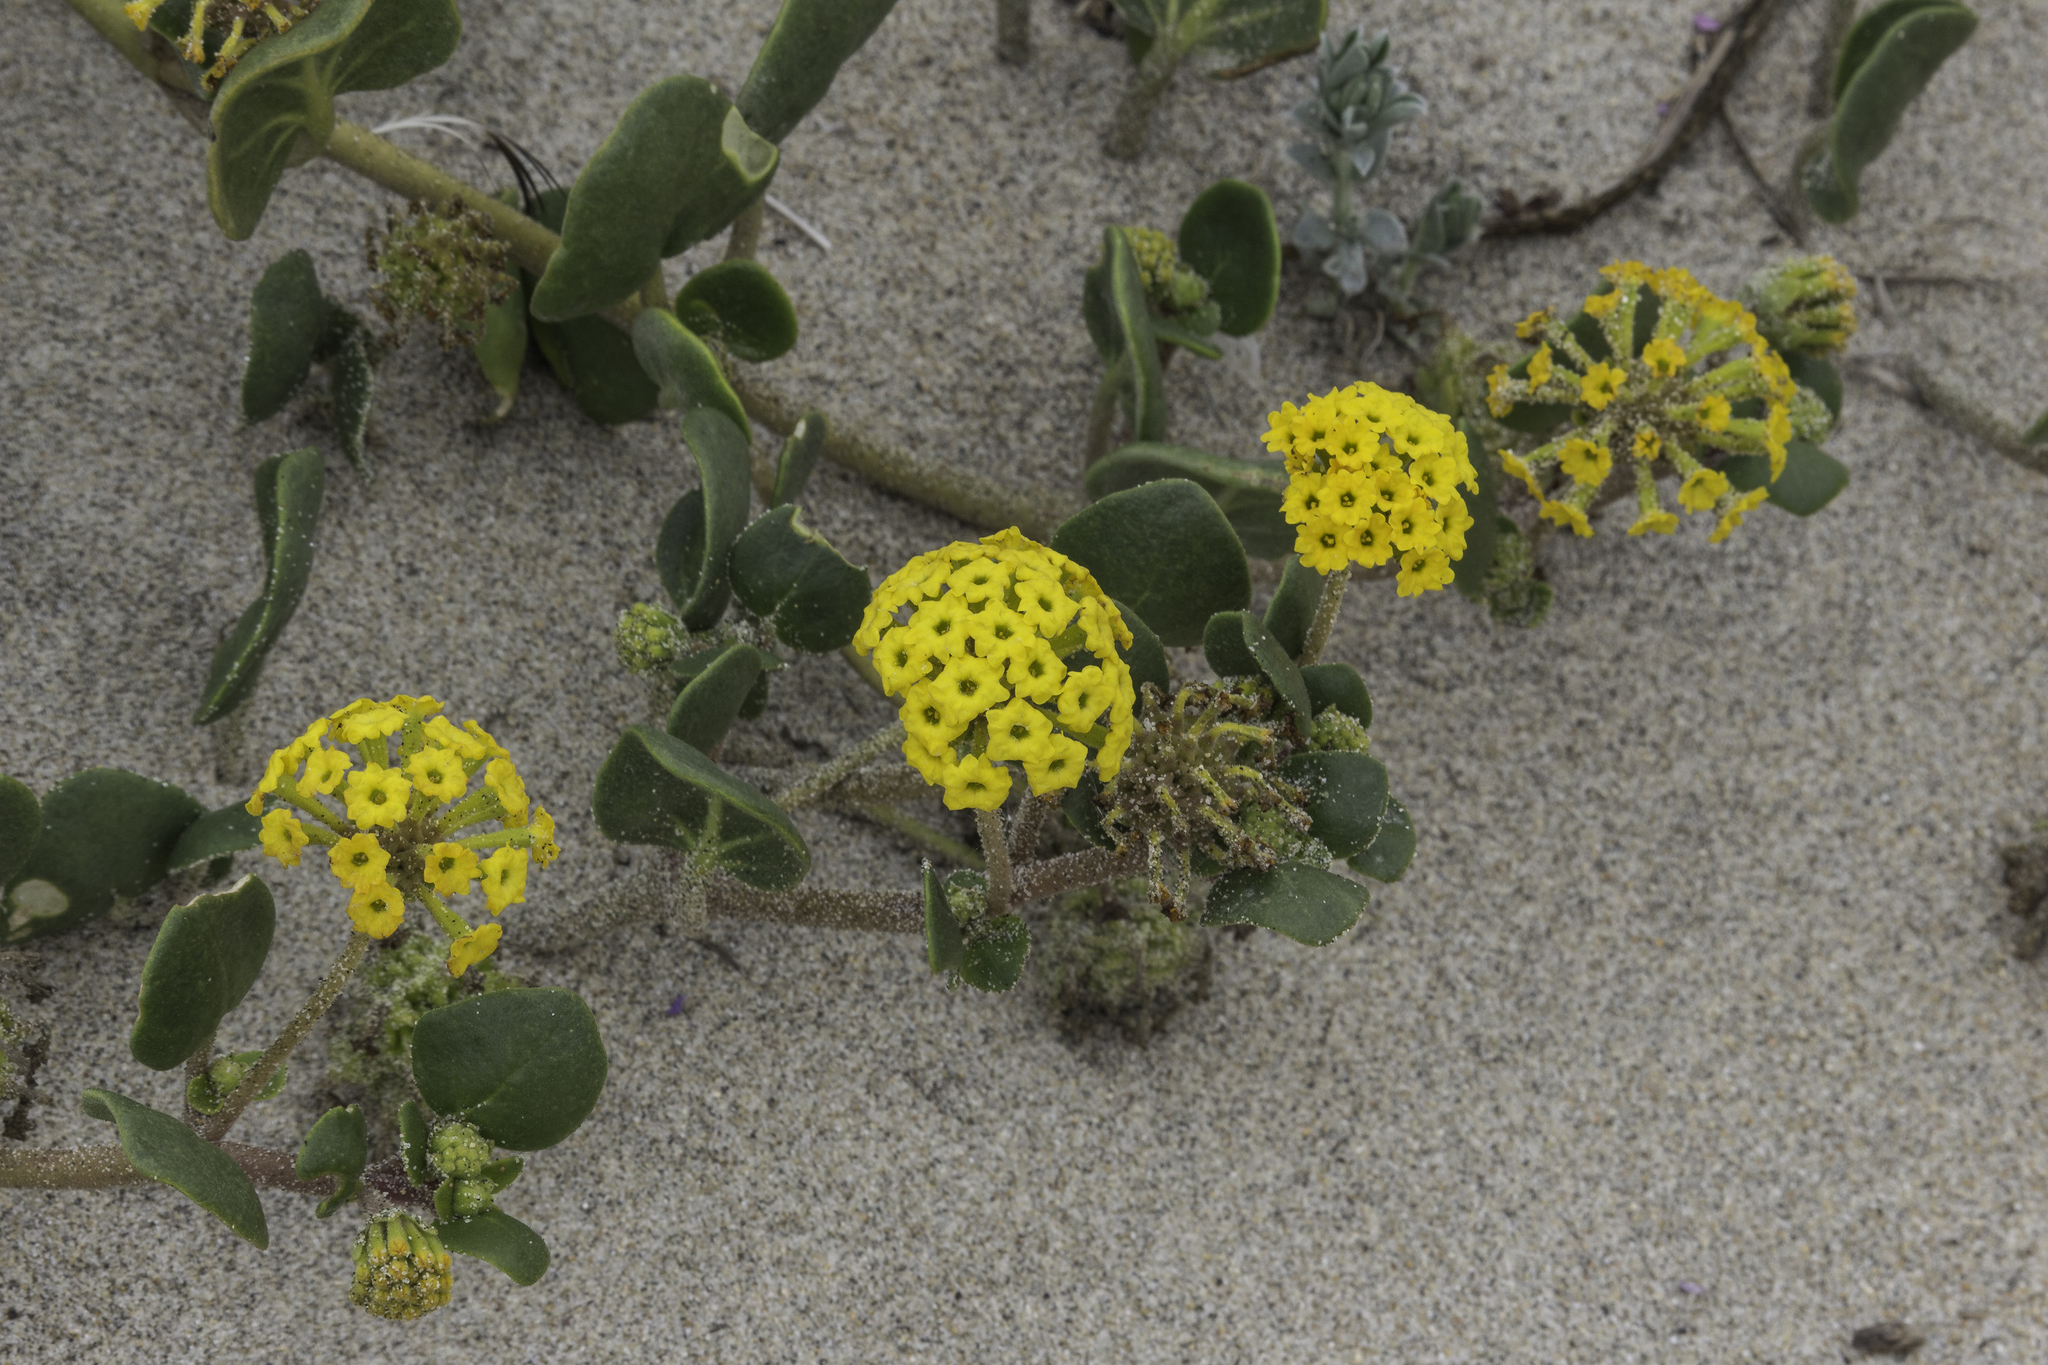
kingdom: Plantae
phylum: Tracheophyta
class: Magnoliopsida
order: Caryophyllales
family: Nyctaginaceae
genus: Abronia
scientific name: Abronia latifolia
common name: Yellow sand-verbena
